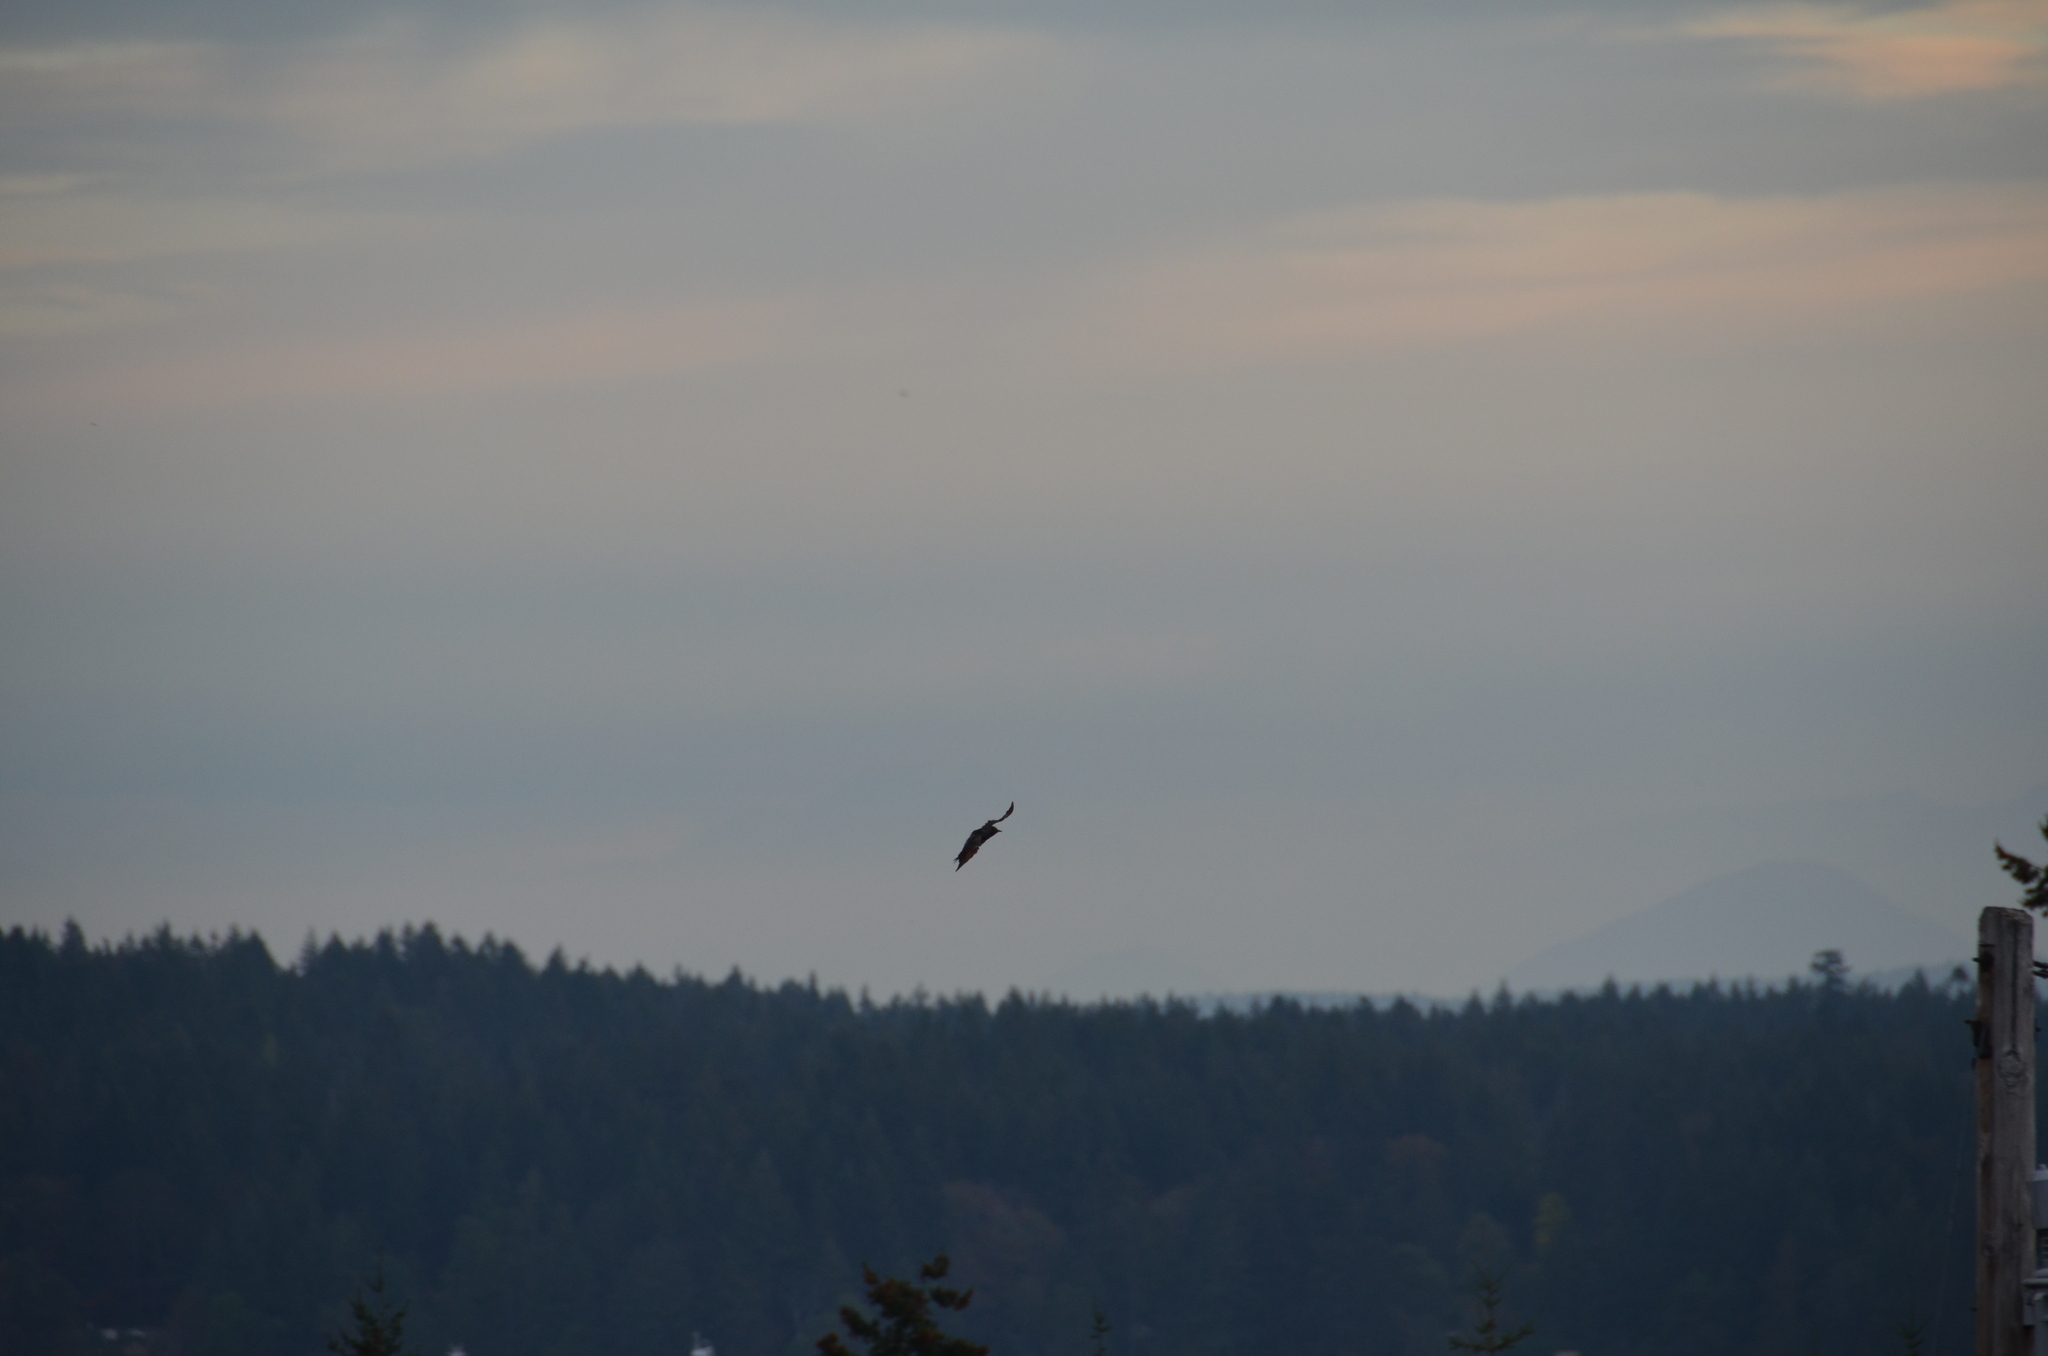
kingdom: Animalia
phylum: Chordata
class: Aves
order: Piciformes
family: Picidae
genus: Colaptes
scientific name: Colaptes auratus
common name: Northern flicker
